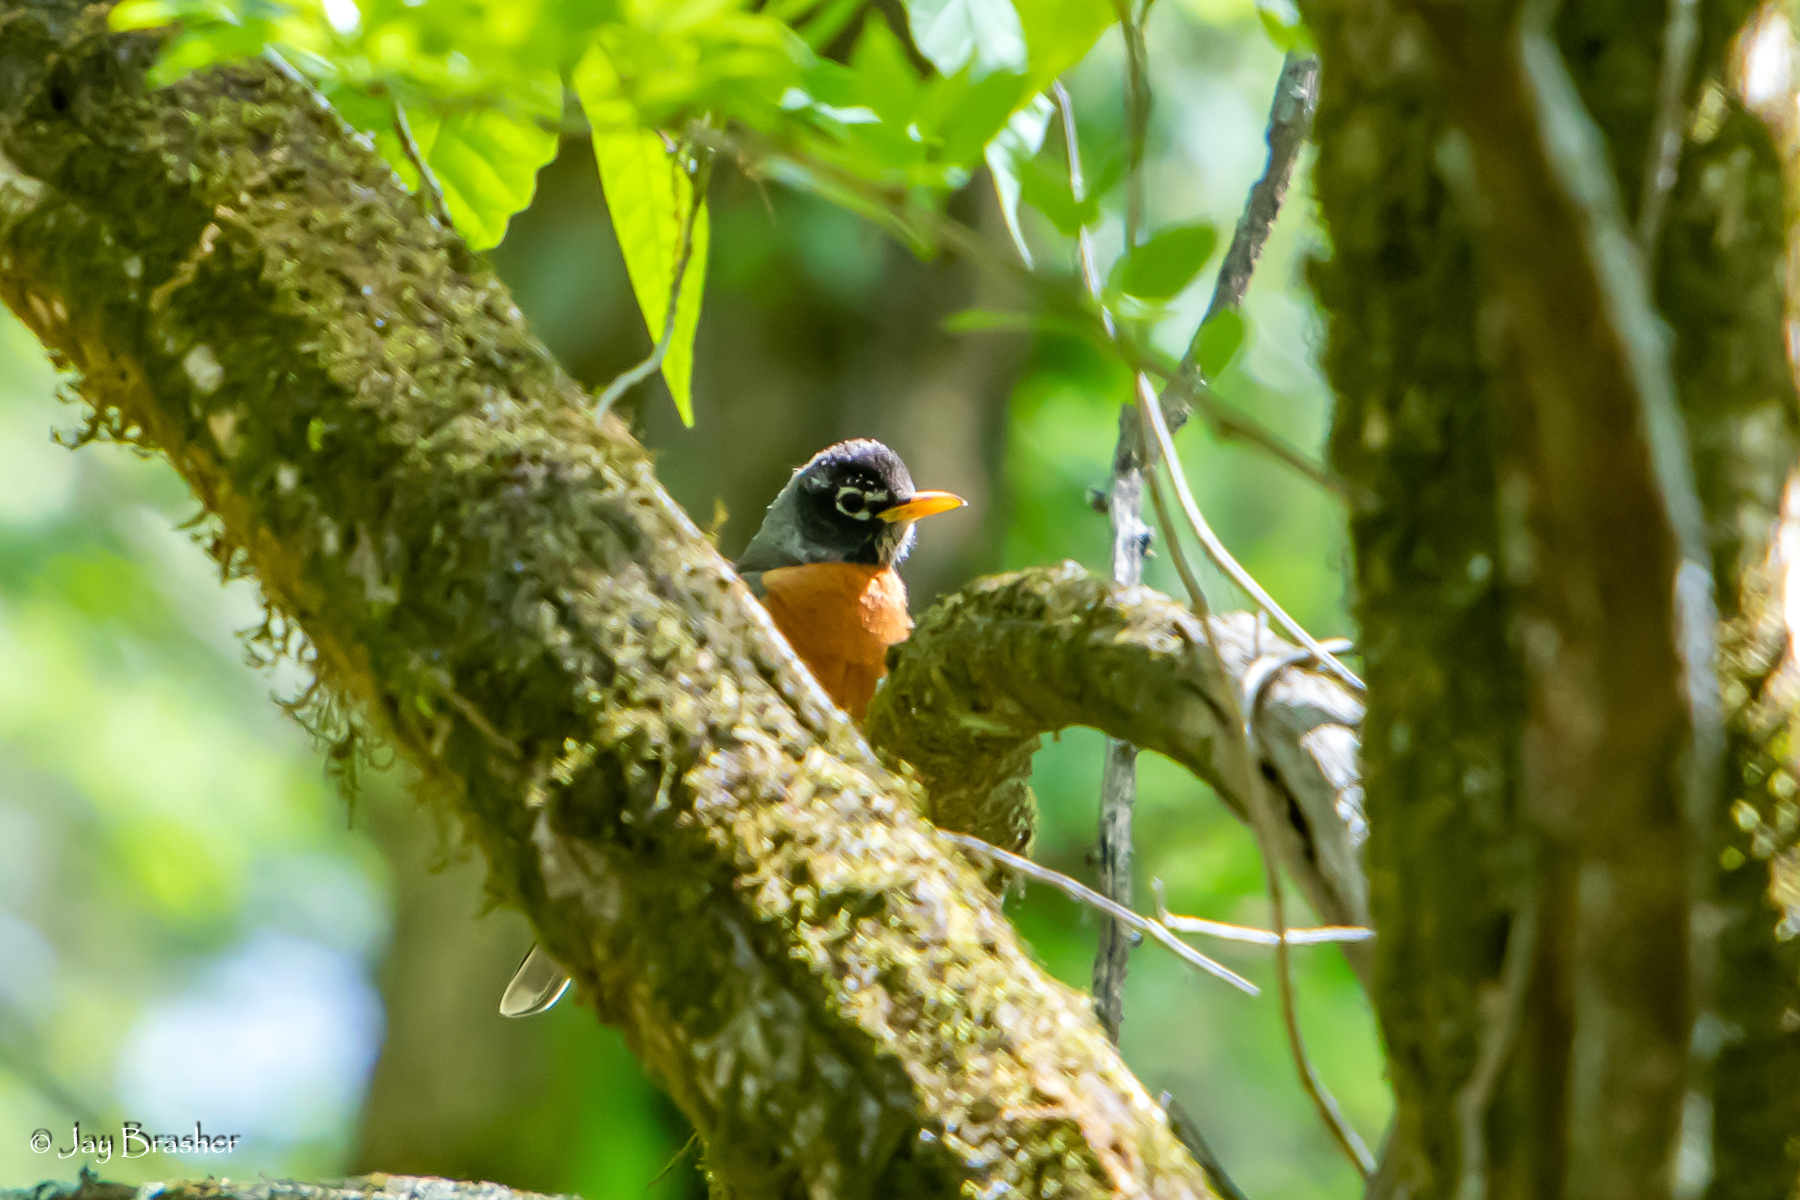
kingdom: Animalia
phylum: Chordata
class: Aves
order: Passeriformes
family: Turdidae
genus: Turdus
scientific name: Turdus migratorius
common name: American robin
